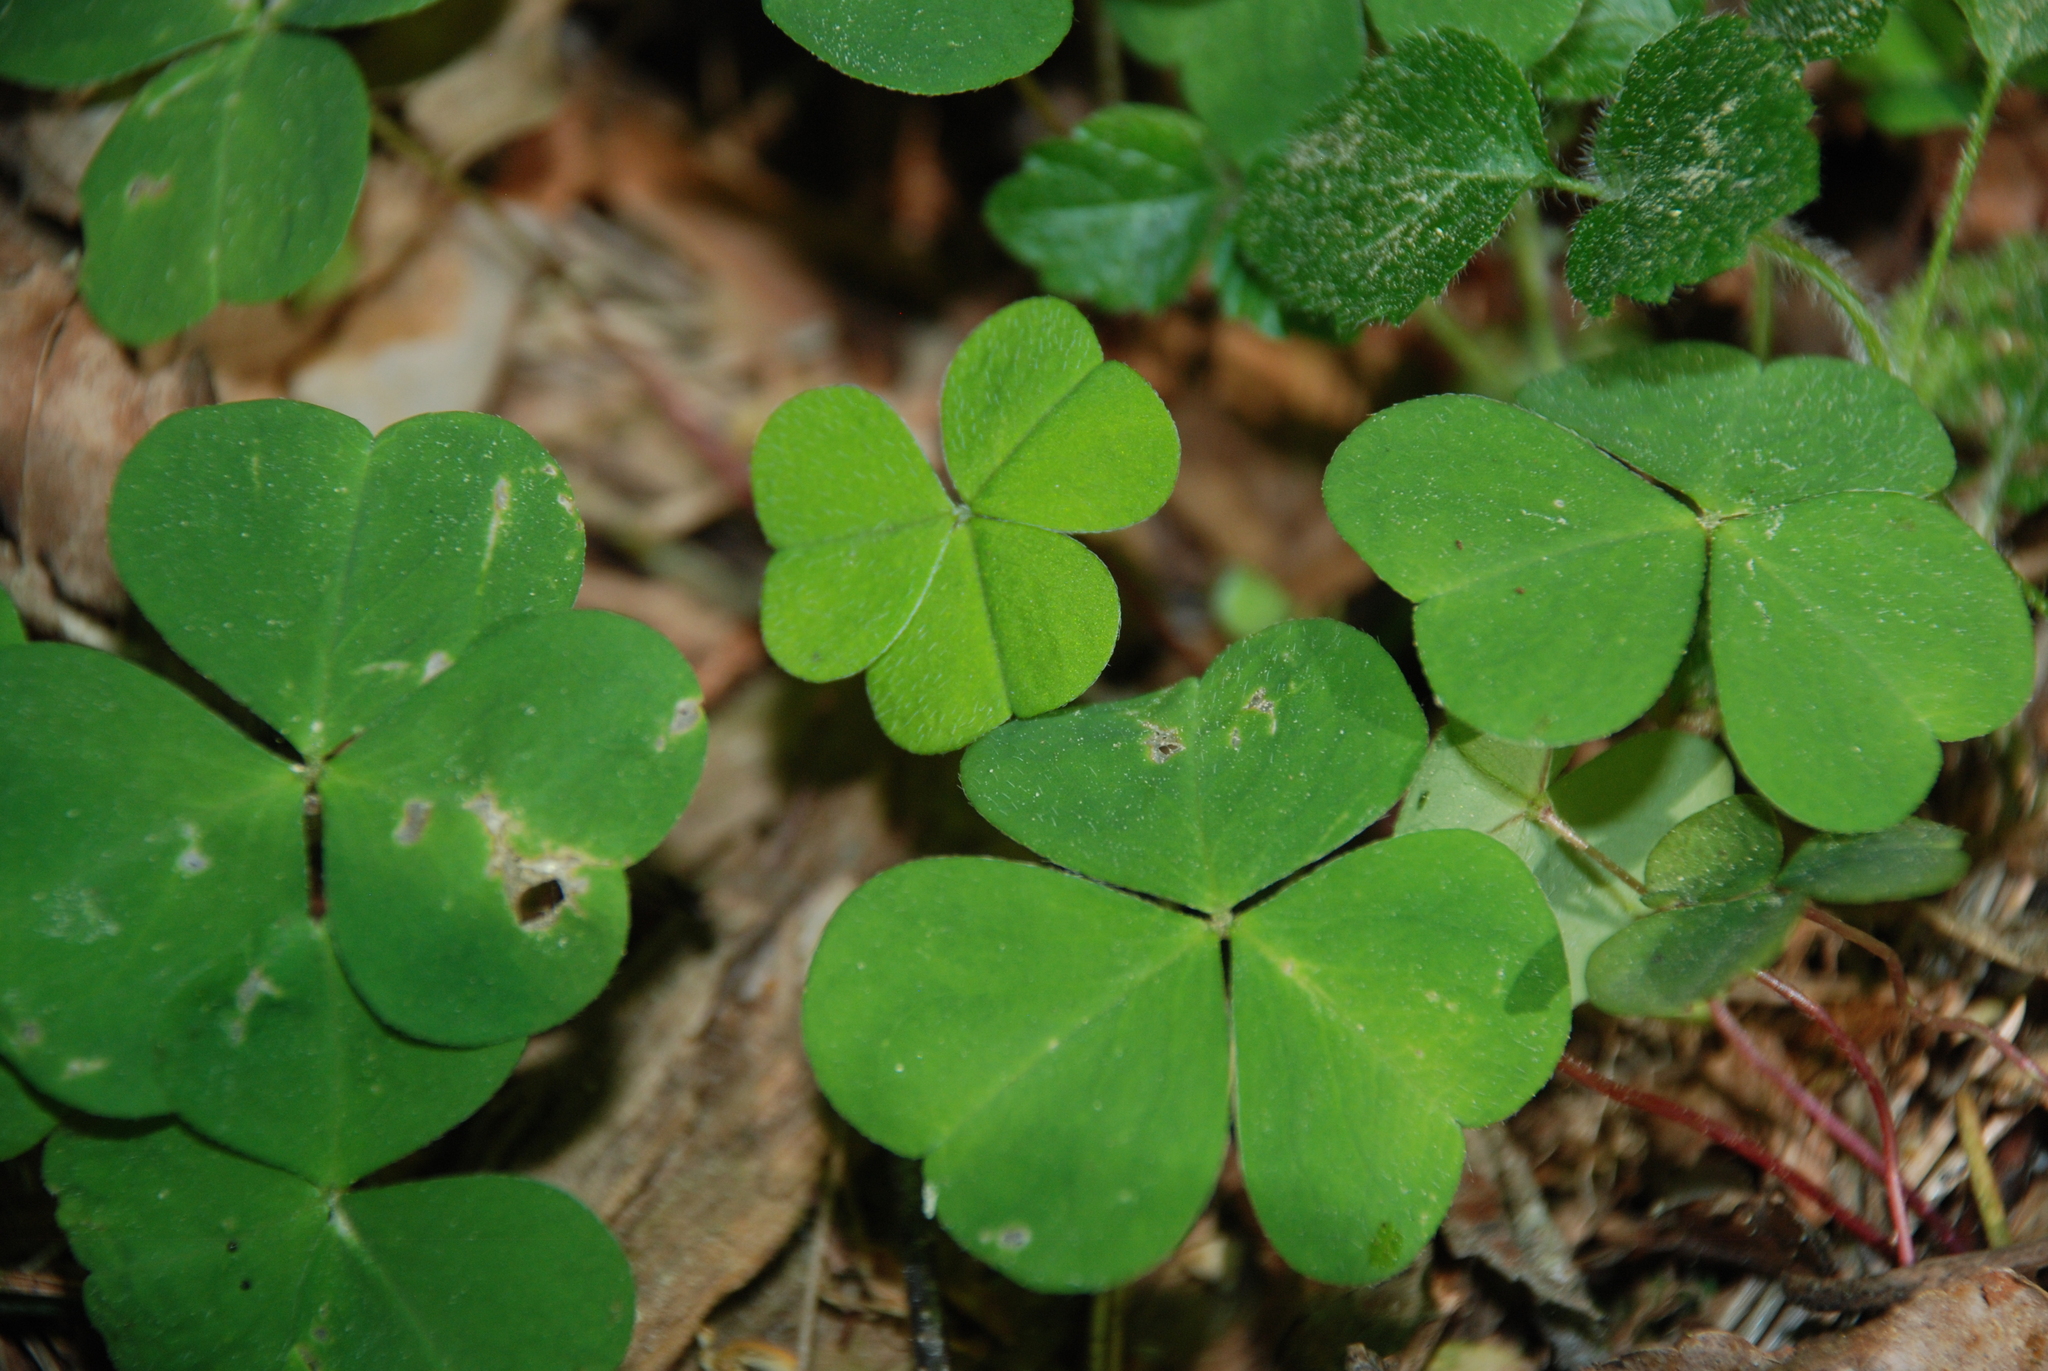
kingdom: Plantae
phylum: Tracheophyta
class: Magnoliopsida
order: Oxalidales
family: Oxalidaceae
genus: Oxalis
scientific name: Oxalis acetosella
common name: Wood-sorrel
